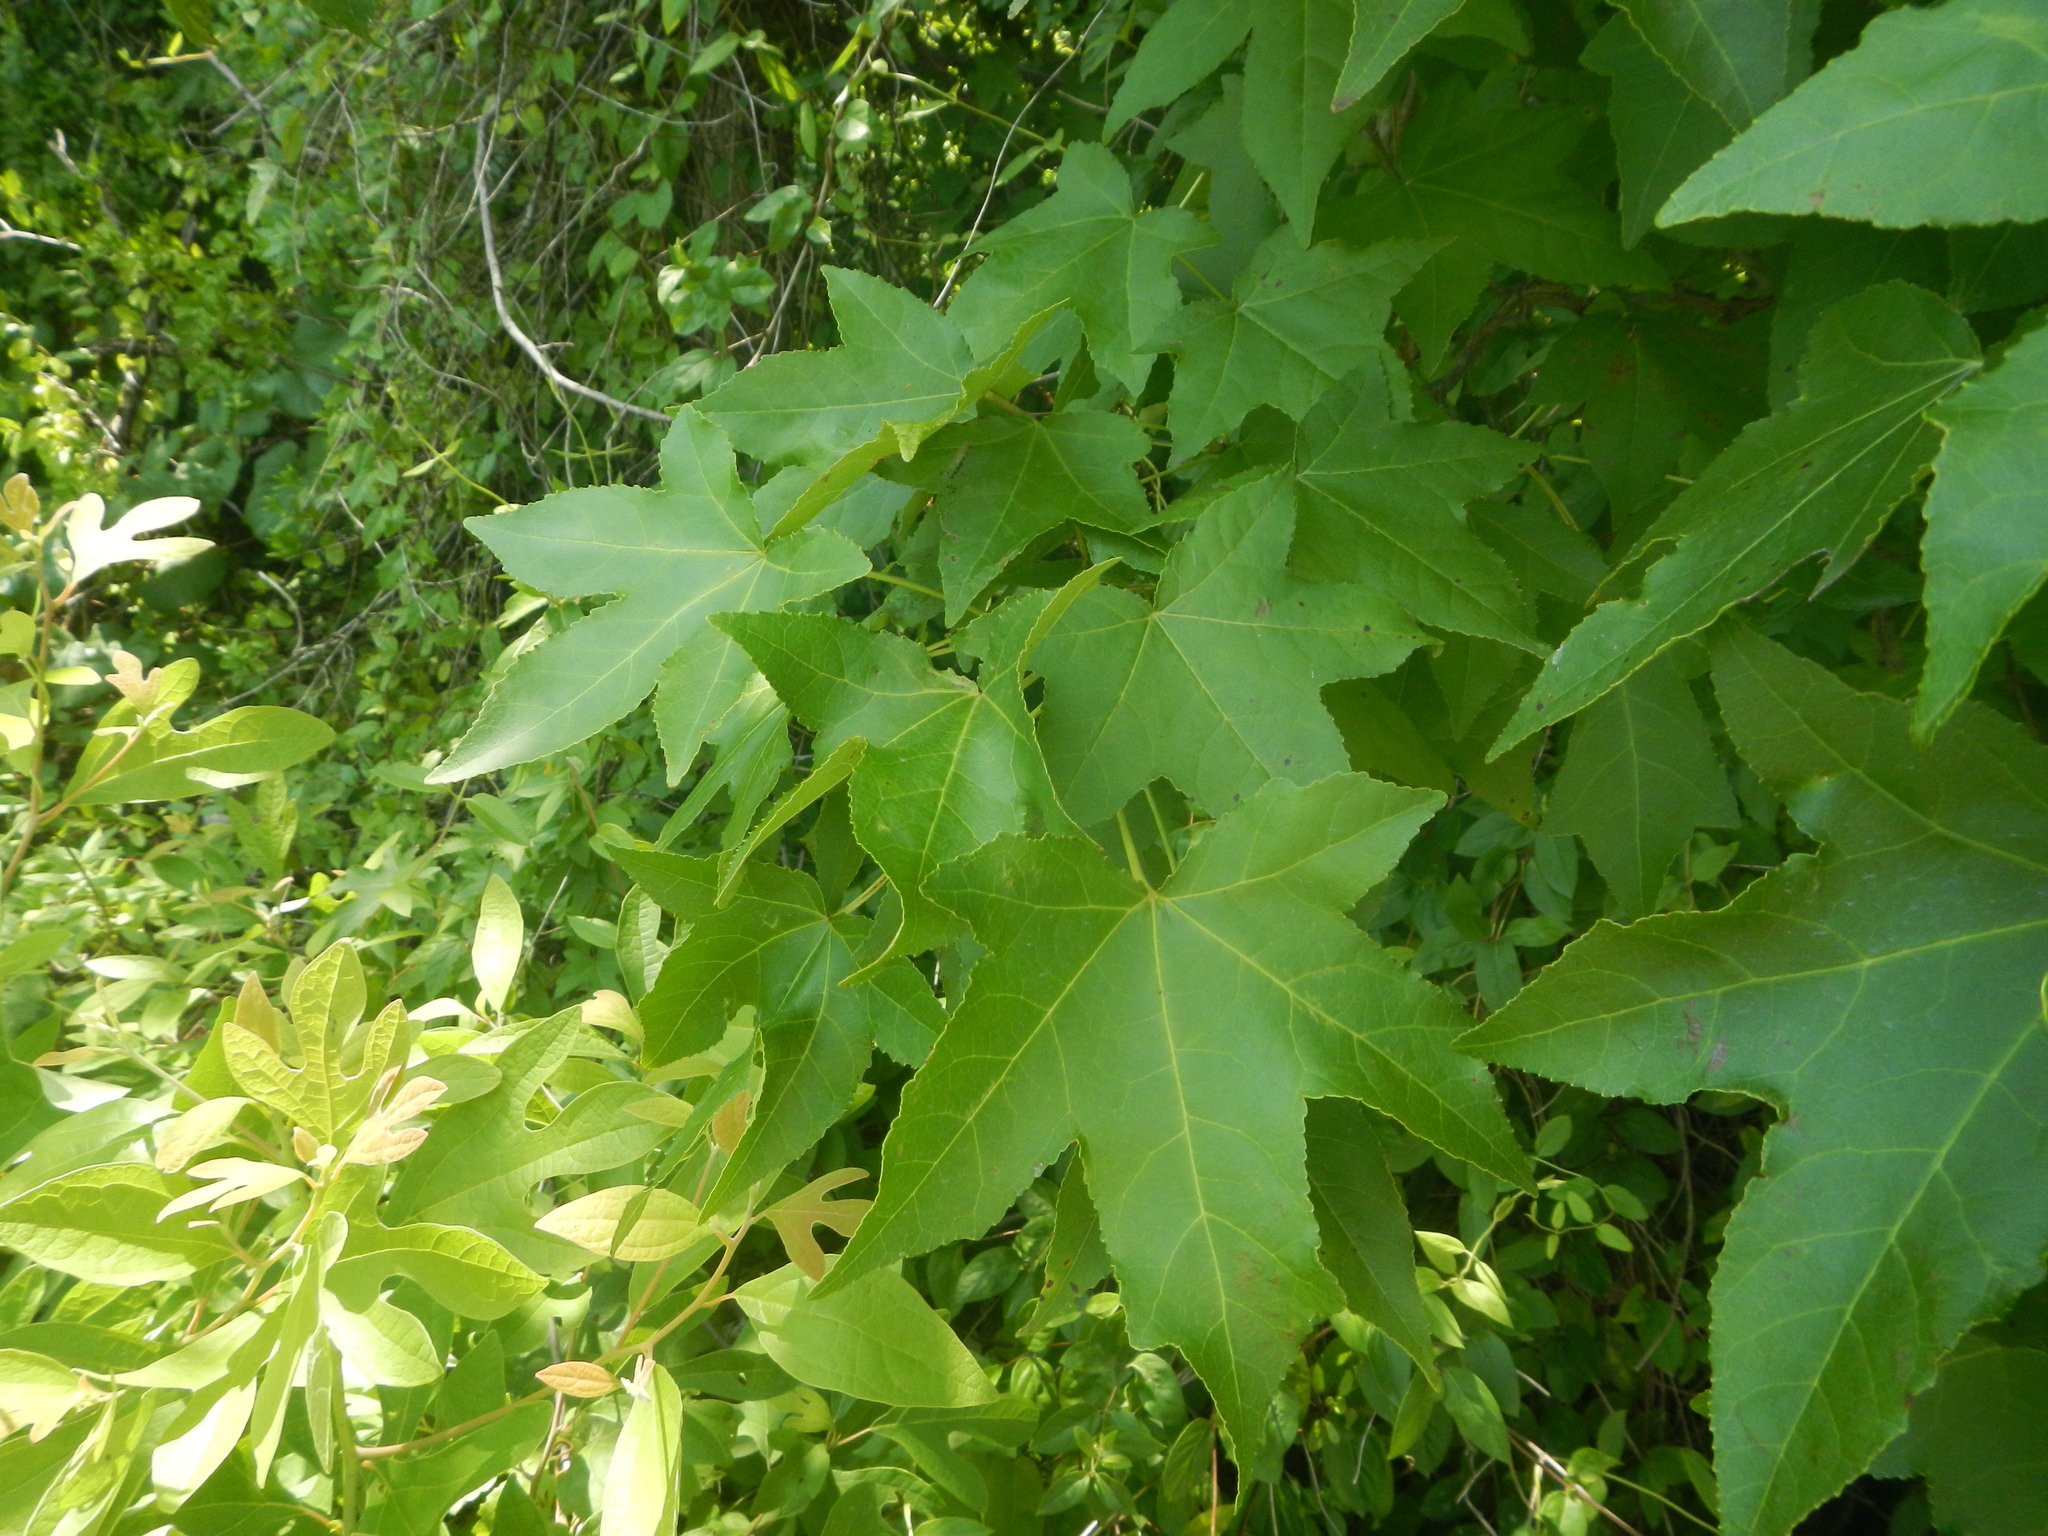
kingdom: Plantae
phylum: Tracheophyta
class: Magnoliopsida
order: Saxifragales
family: Altingiaceae
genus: Liquidambar
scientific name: Liquidambar styraciflua
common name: Sweet gum
